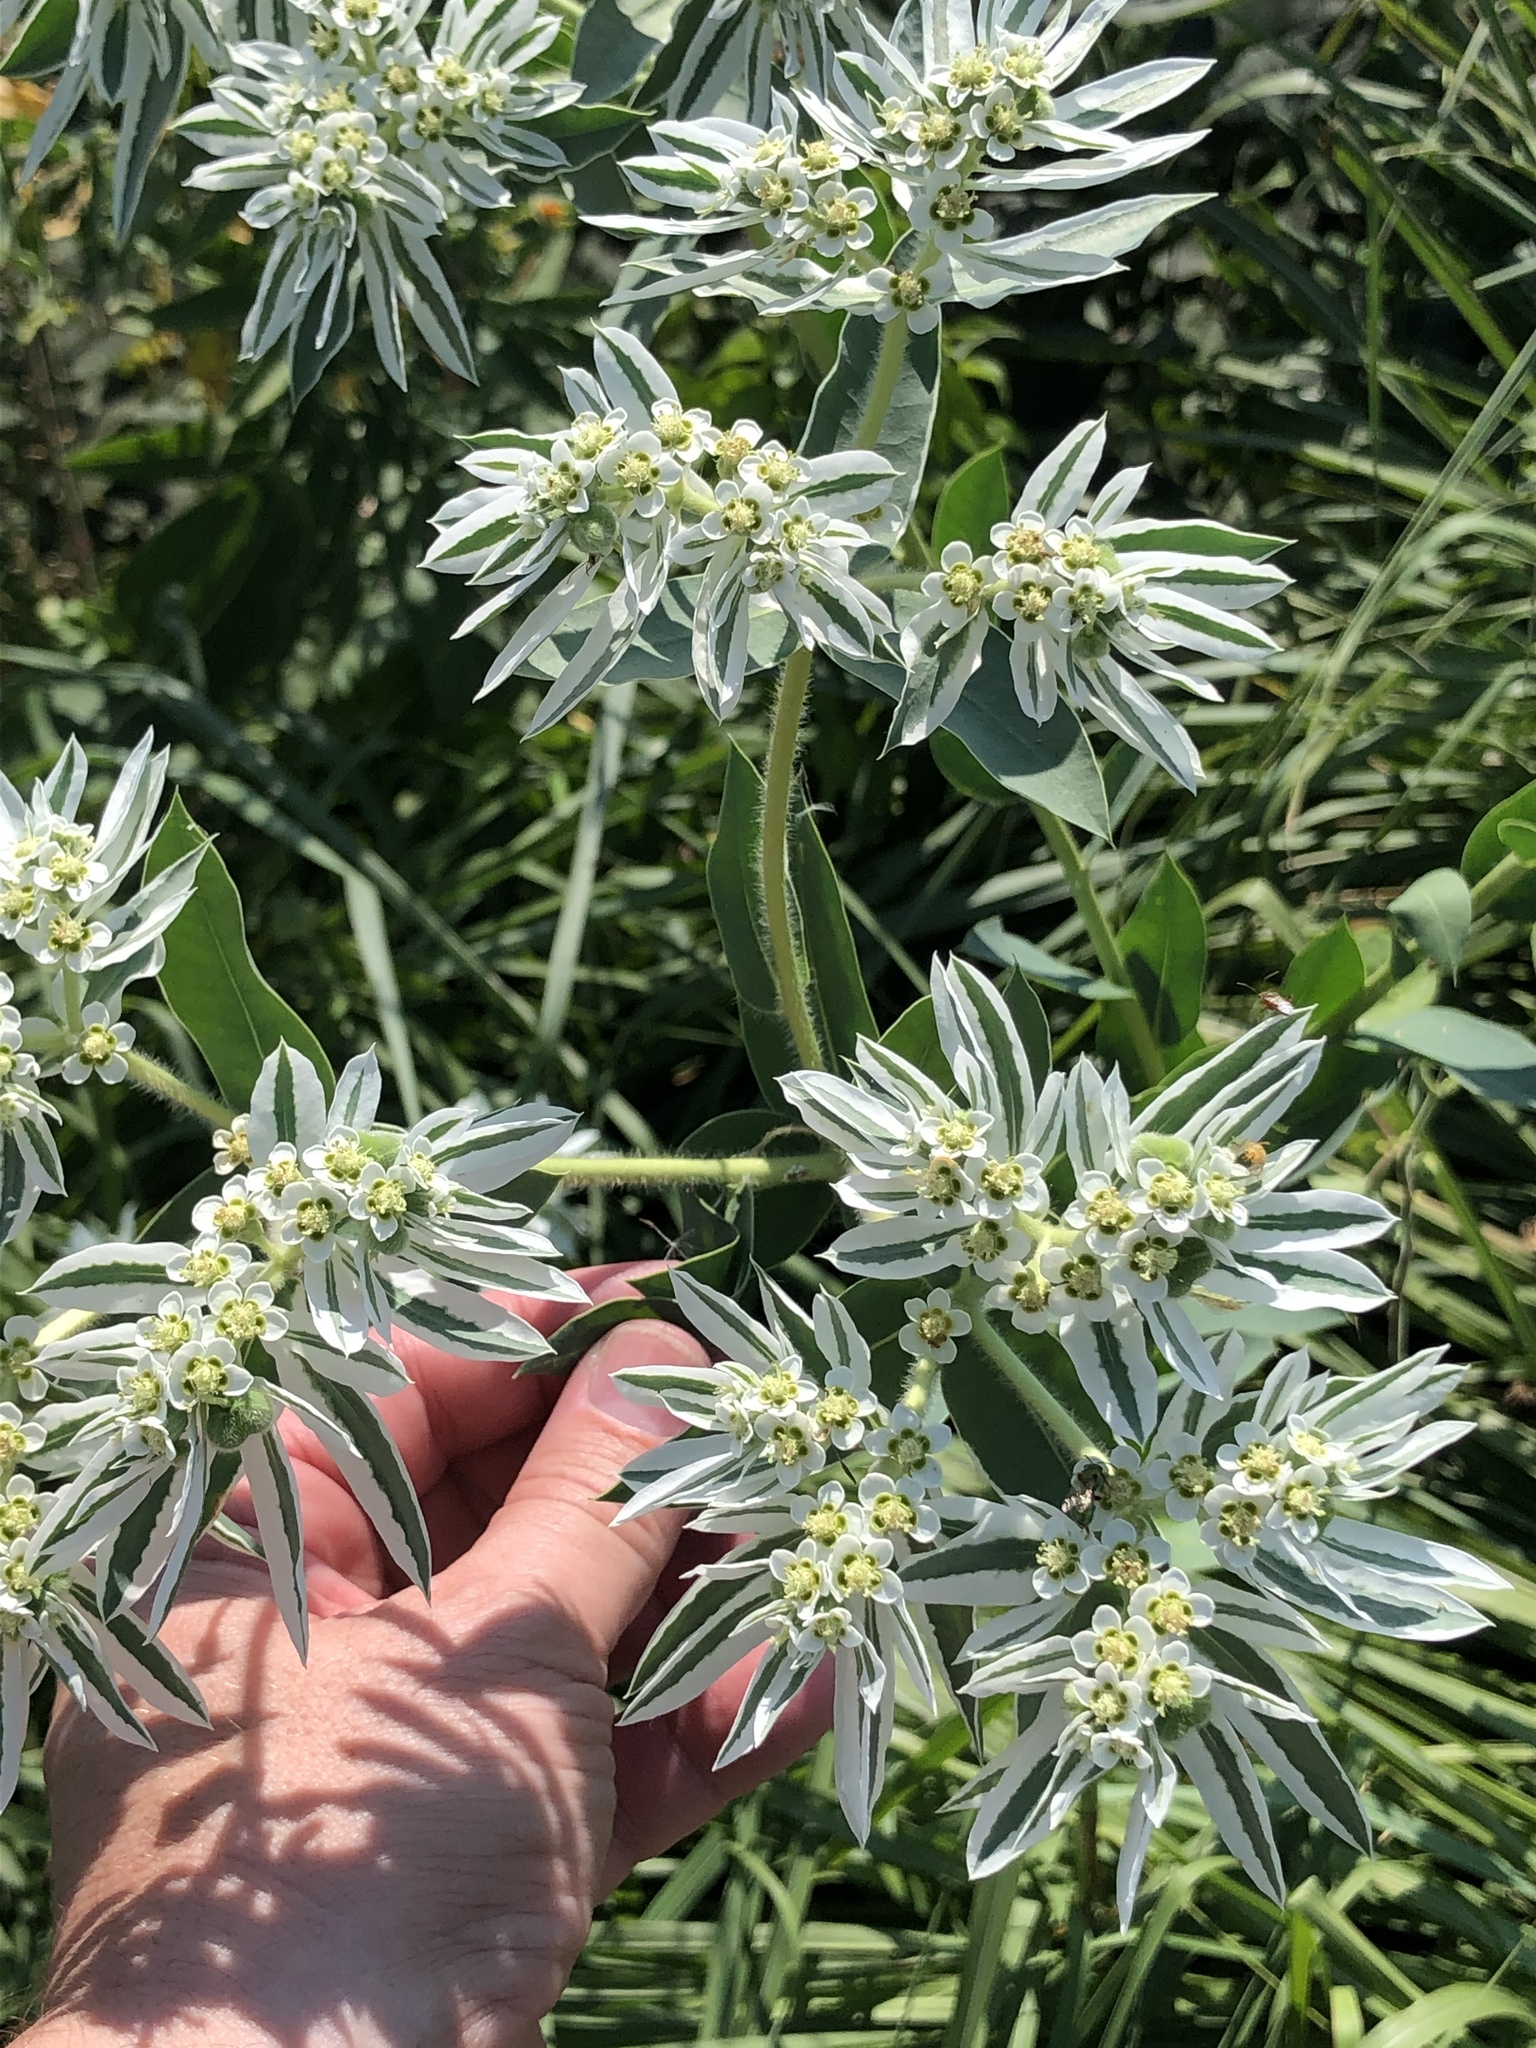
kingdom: Plantae
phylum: Tracheophyta
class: Magnoliopsida
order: Malpighiales
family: Euphorbiaceae
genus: Euphorbia
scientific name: Euphorbia marginata
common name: Ghostweed
